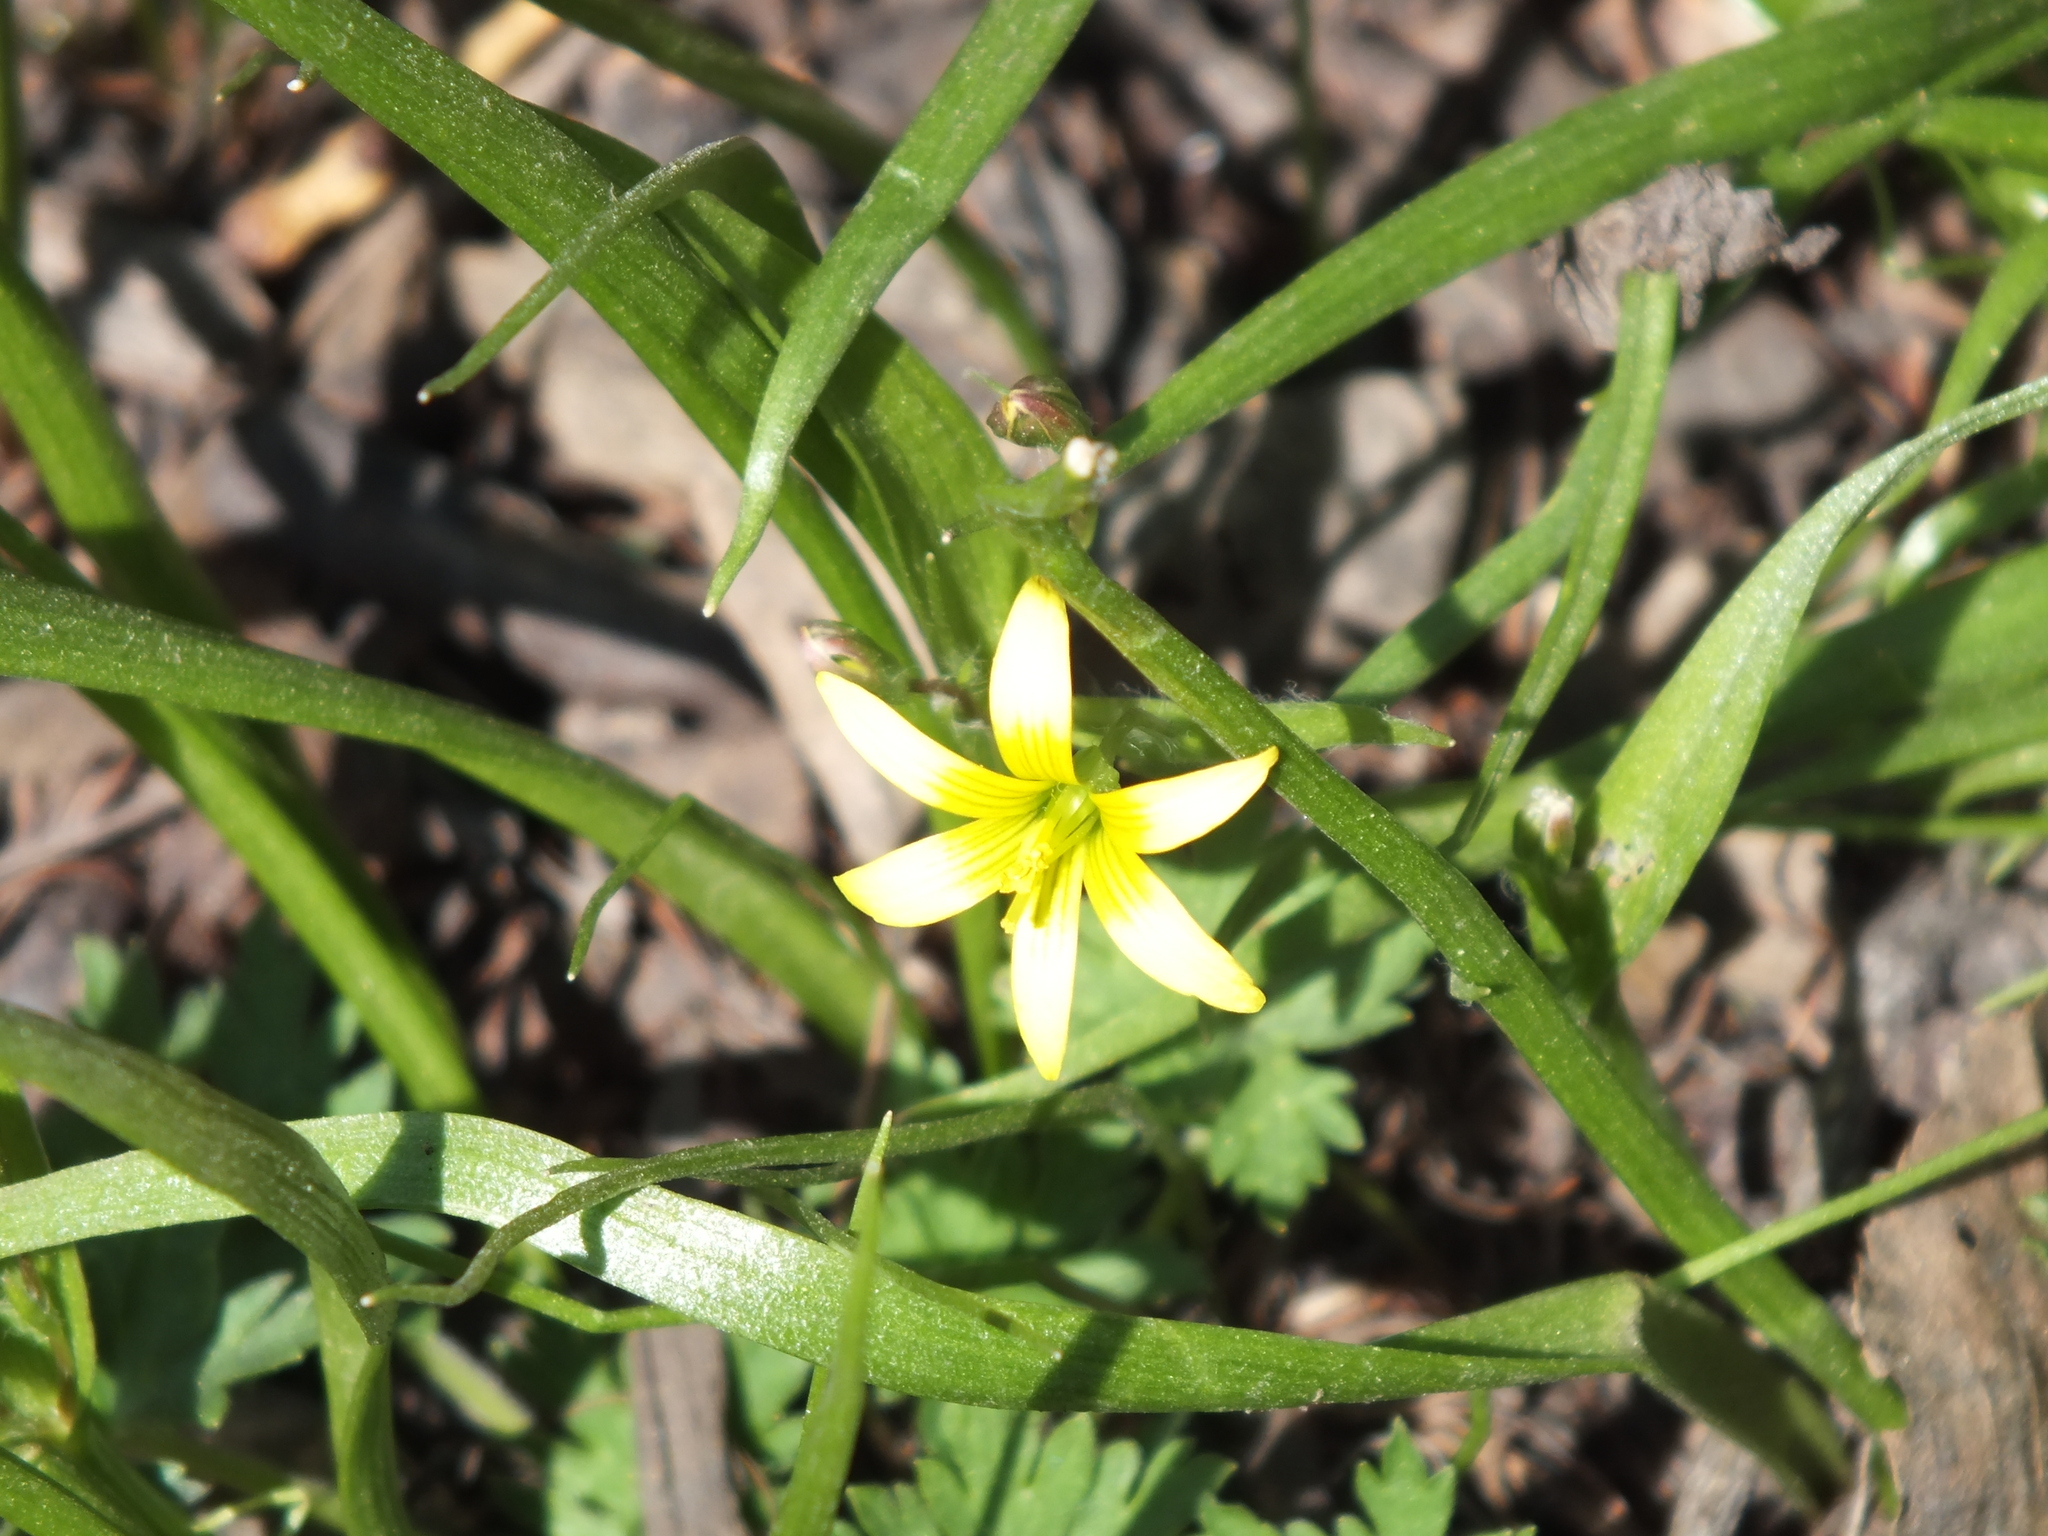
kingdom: Plantae
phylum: Tracheophyta
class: Liliopsida
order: Liliales
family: Liliaceae
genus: Gagea
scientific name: Gagea granulosa
